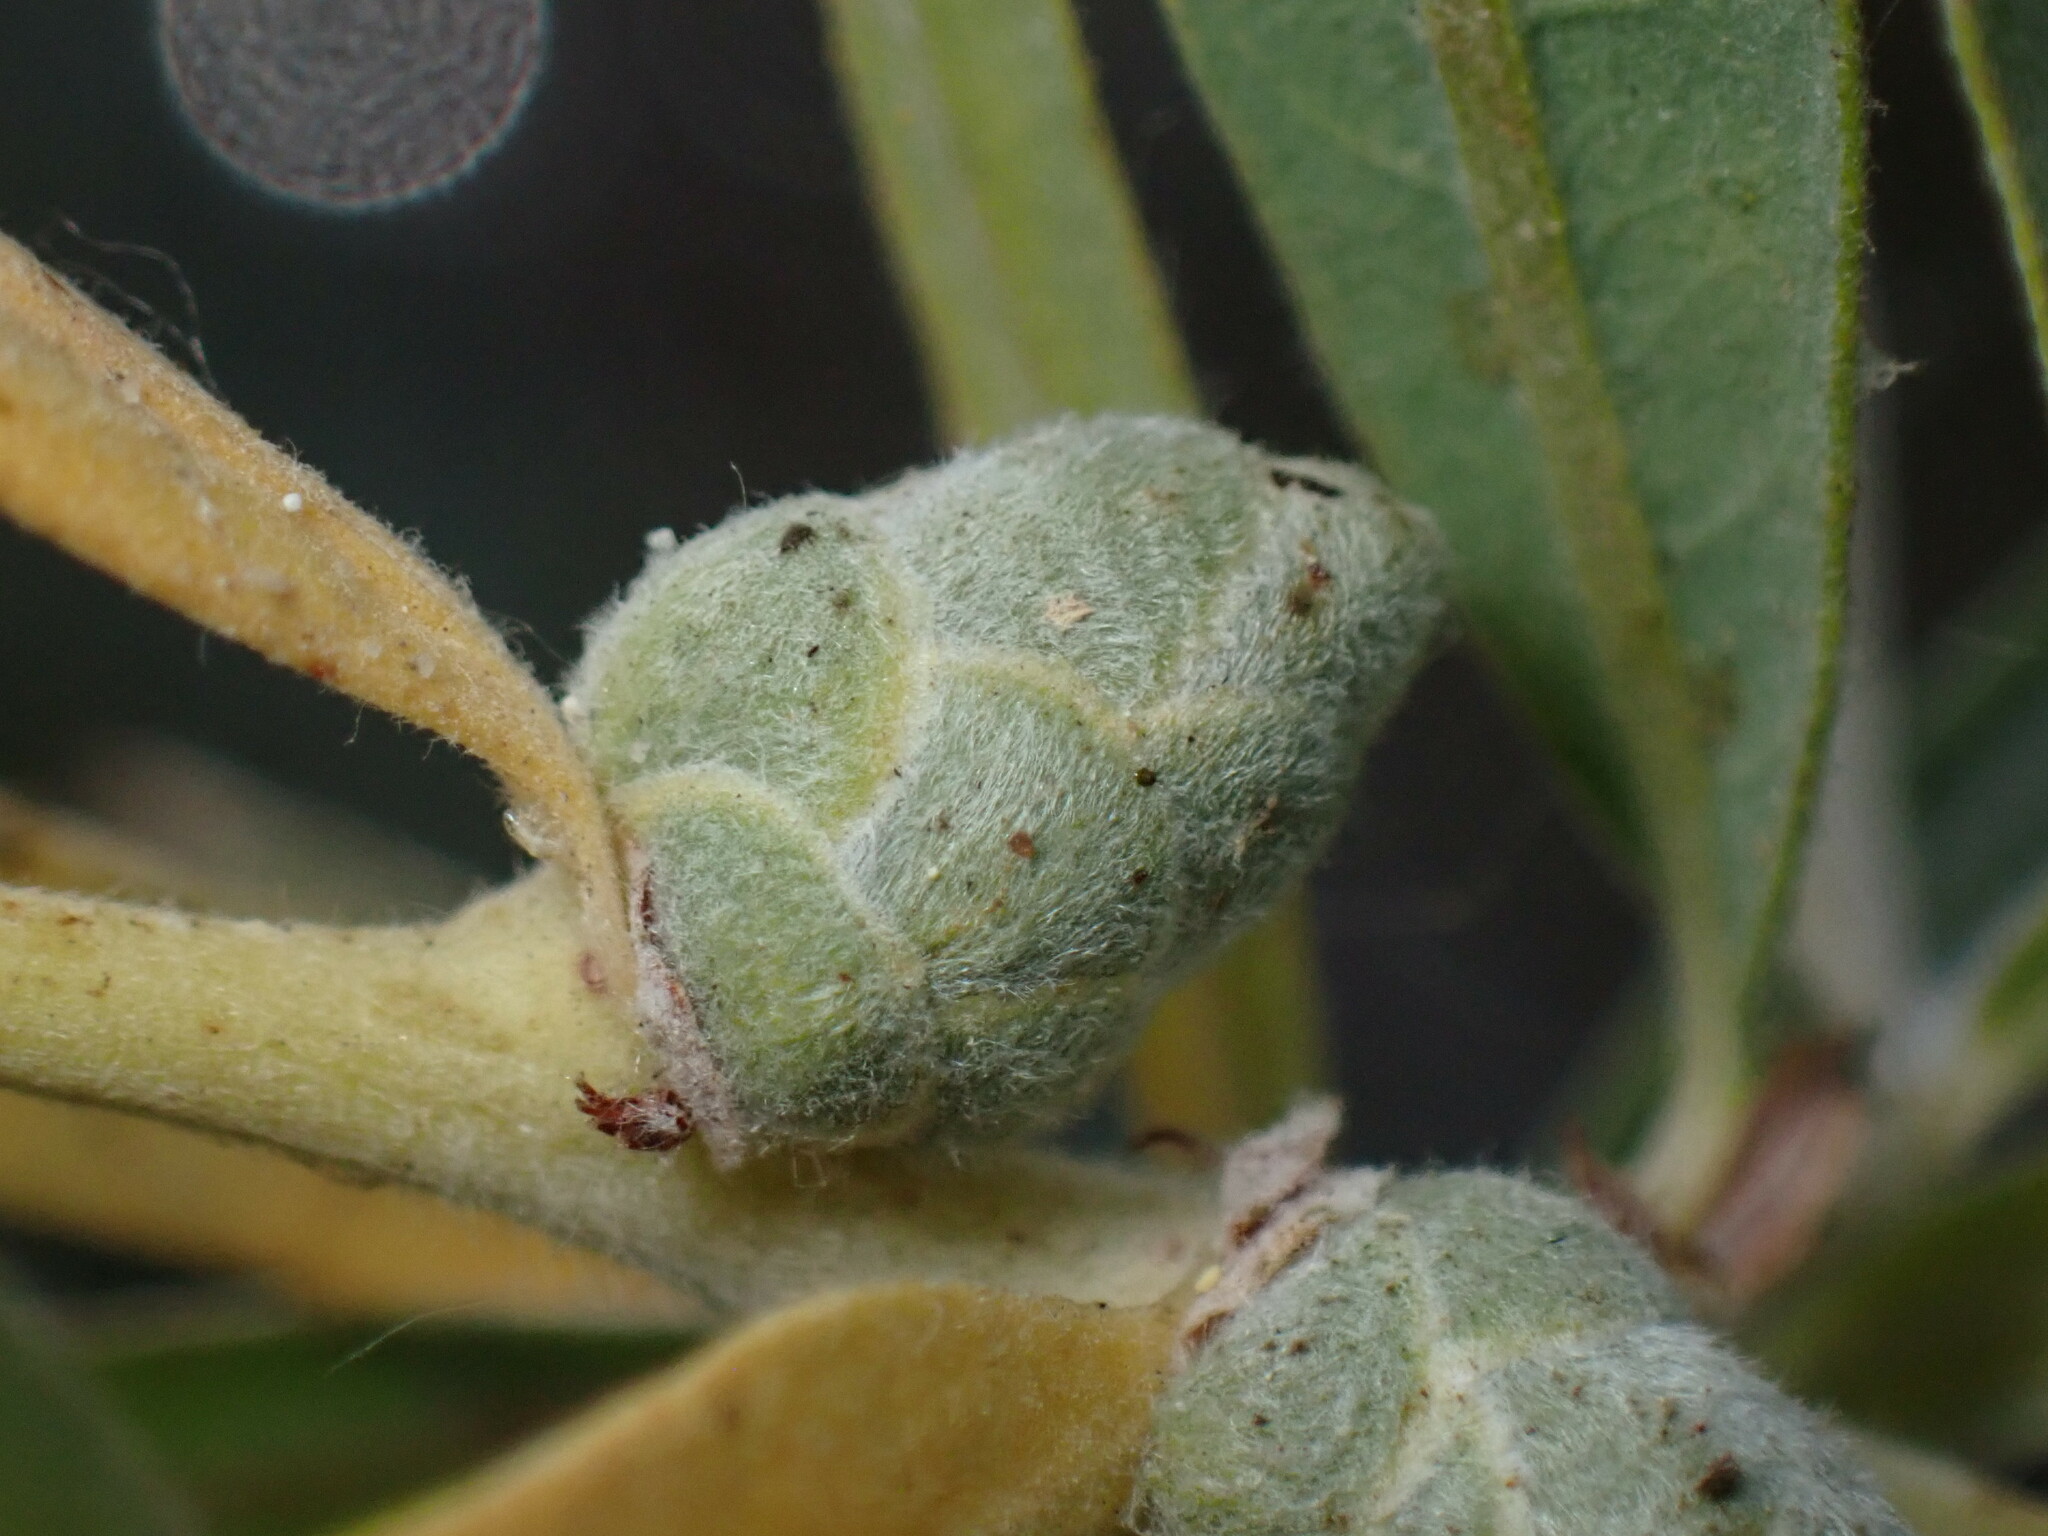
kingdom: Animalia
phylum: Arthropoda
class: Insecta
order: Diptera
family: Cecidomyiidae
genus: Rabdophaga
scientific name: Rabdophaga strobiloides
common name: Willow pinecone gall midge
